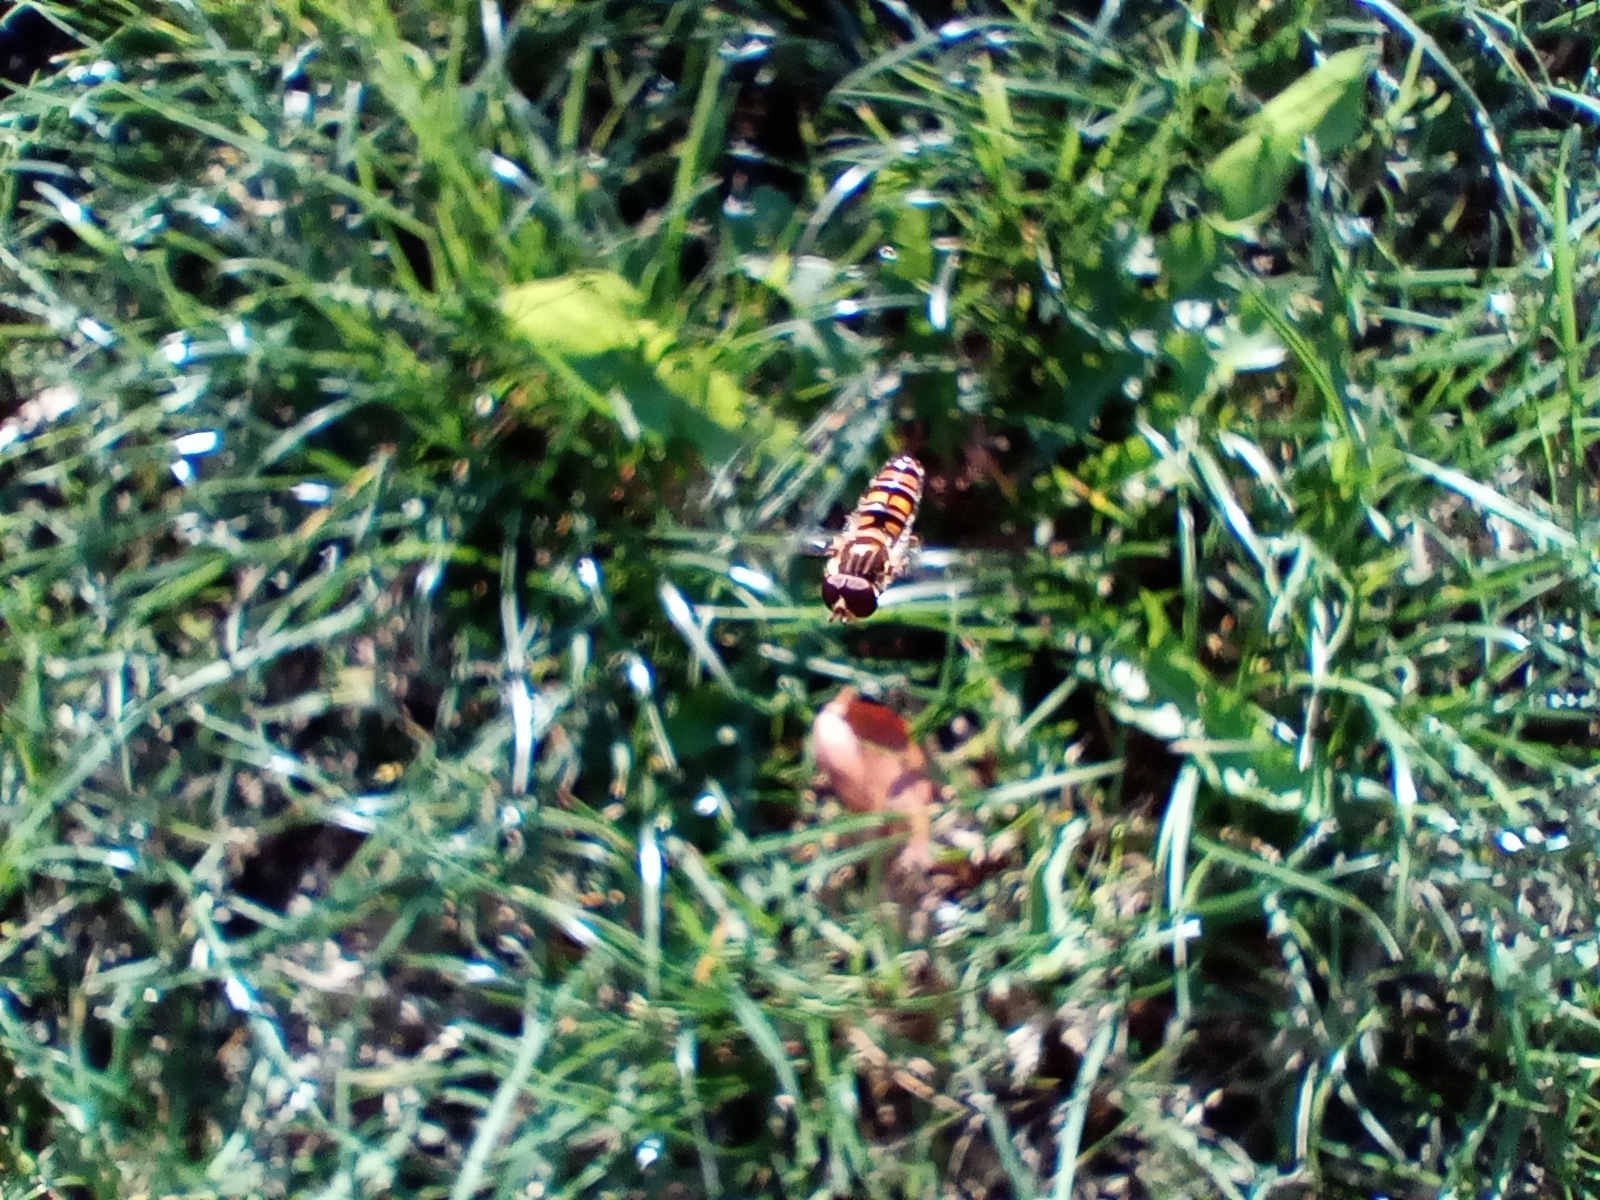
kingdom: Animalia
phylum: Arthropoda
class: Insecta
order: Diptera
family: Syrphidae
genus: Episyrphus
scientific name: Episyrphus balteatus
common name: Marmalade hoverfly
